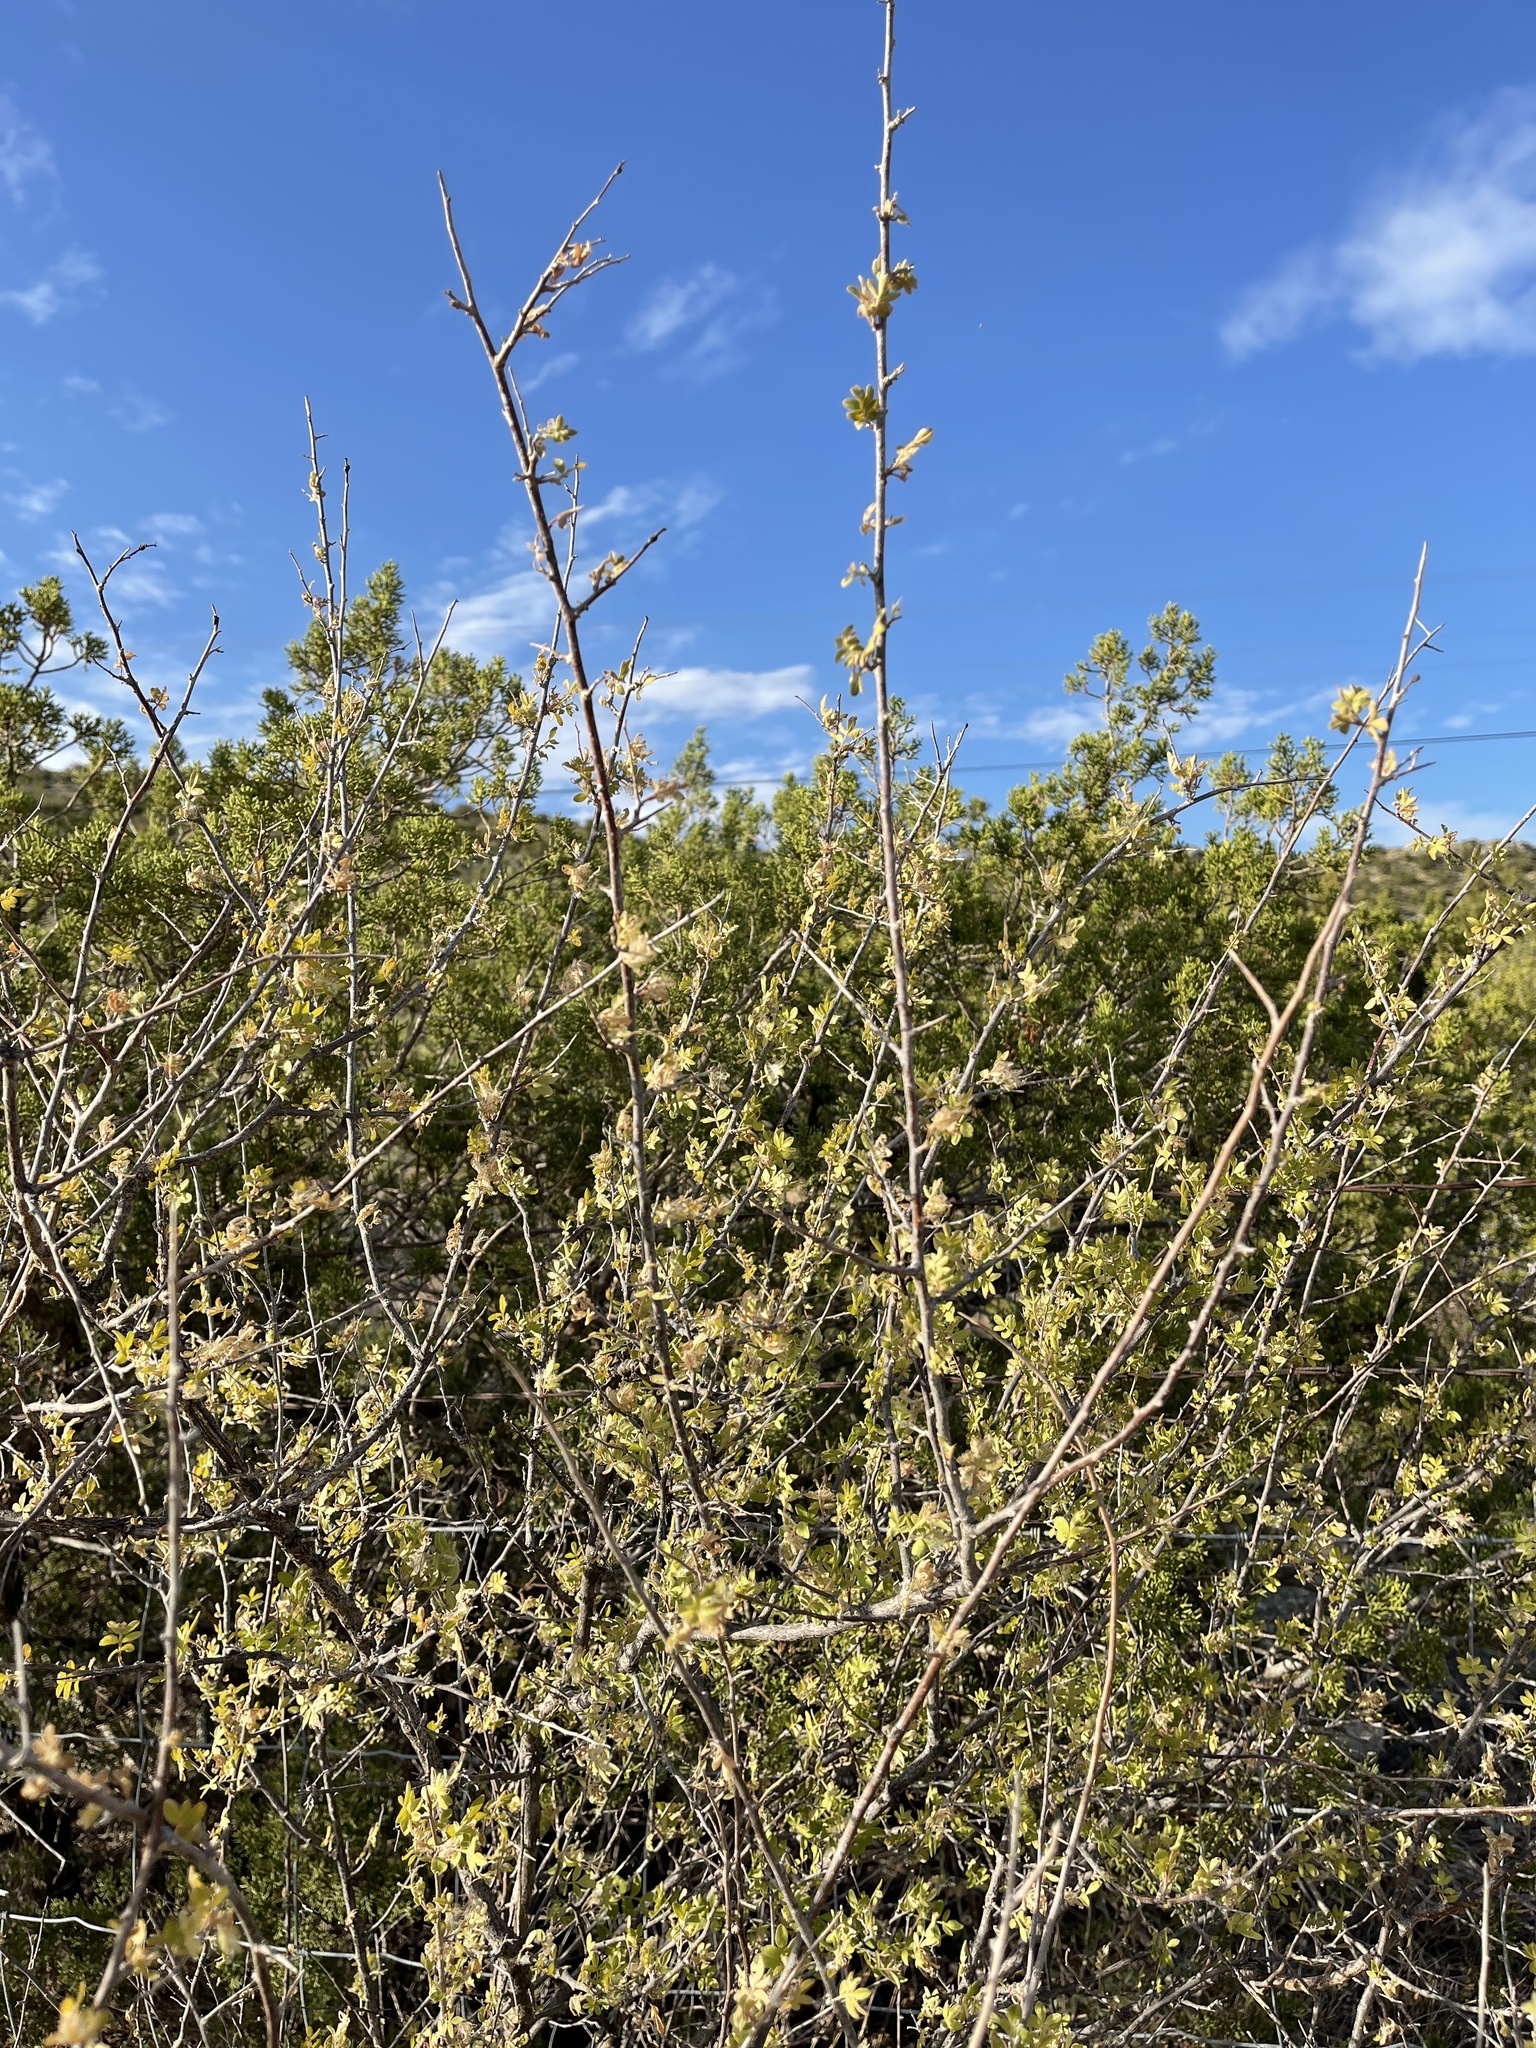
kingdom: Plantae
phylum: Tracheophyta
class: Magnoliopsida
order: Sapindales
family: Anacardiaceae
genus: Rhus
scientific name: Rhus microphylla
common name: Desert sumac
